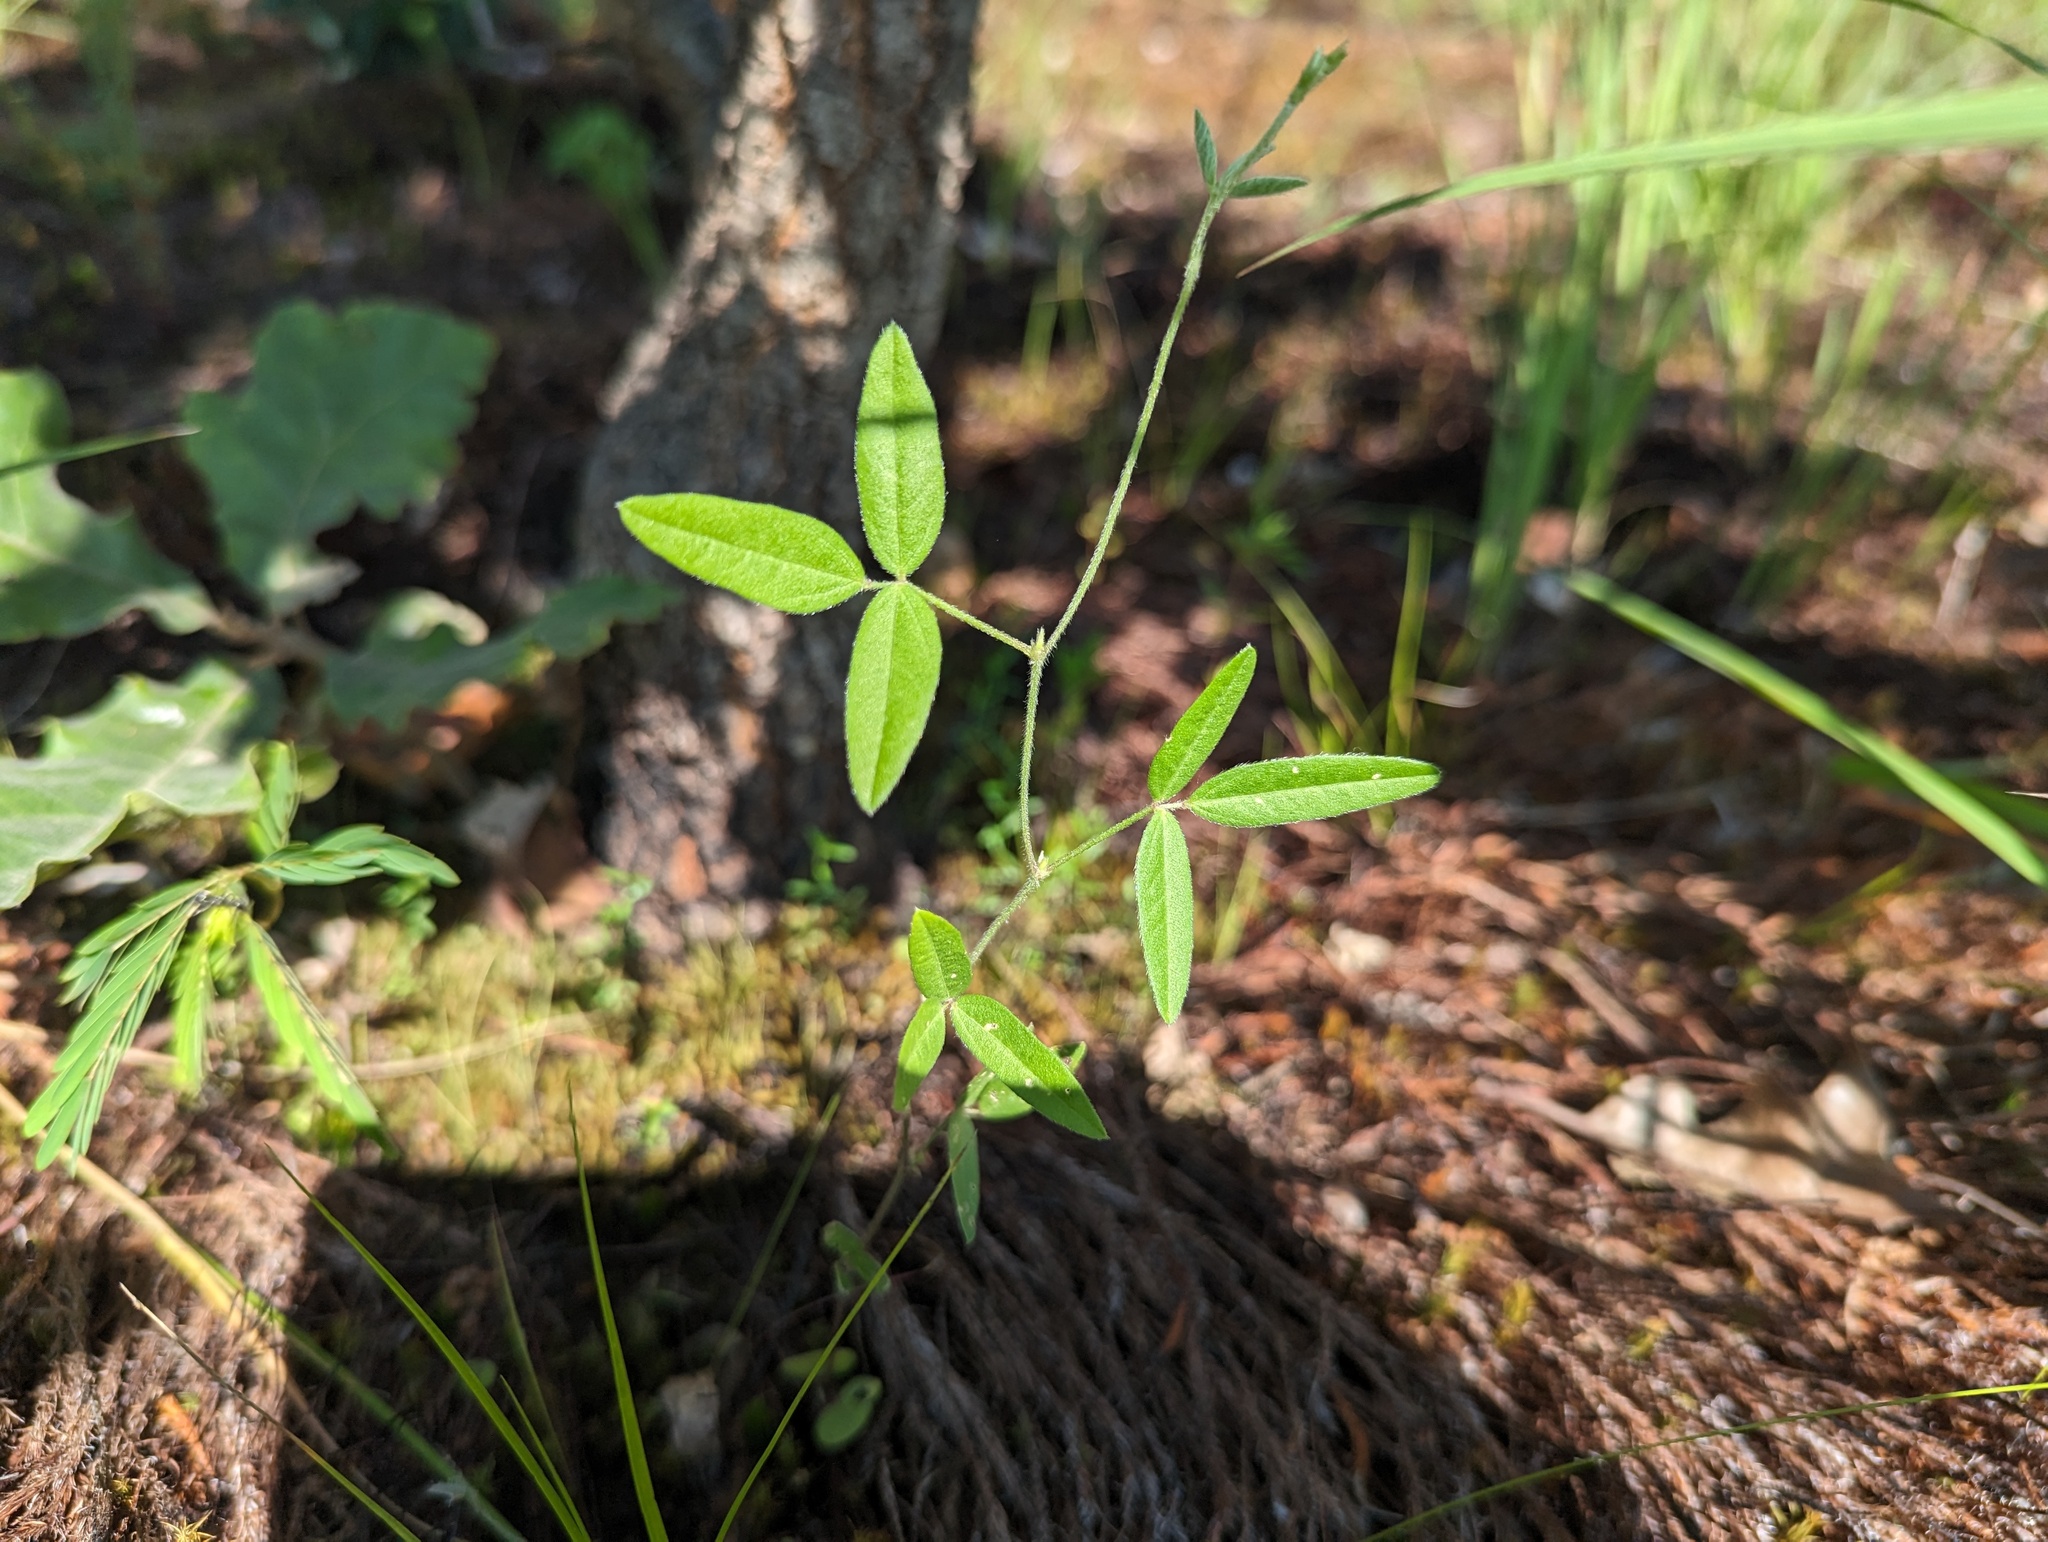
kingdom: Plantae
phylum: Tracheophyta
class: Magnoliopsida
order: Fabales
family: Fabaceae
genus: Strophostyles
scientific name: Strophostyles leiosperma
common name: Smooth-seed wild bean
